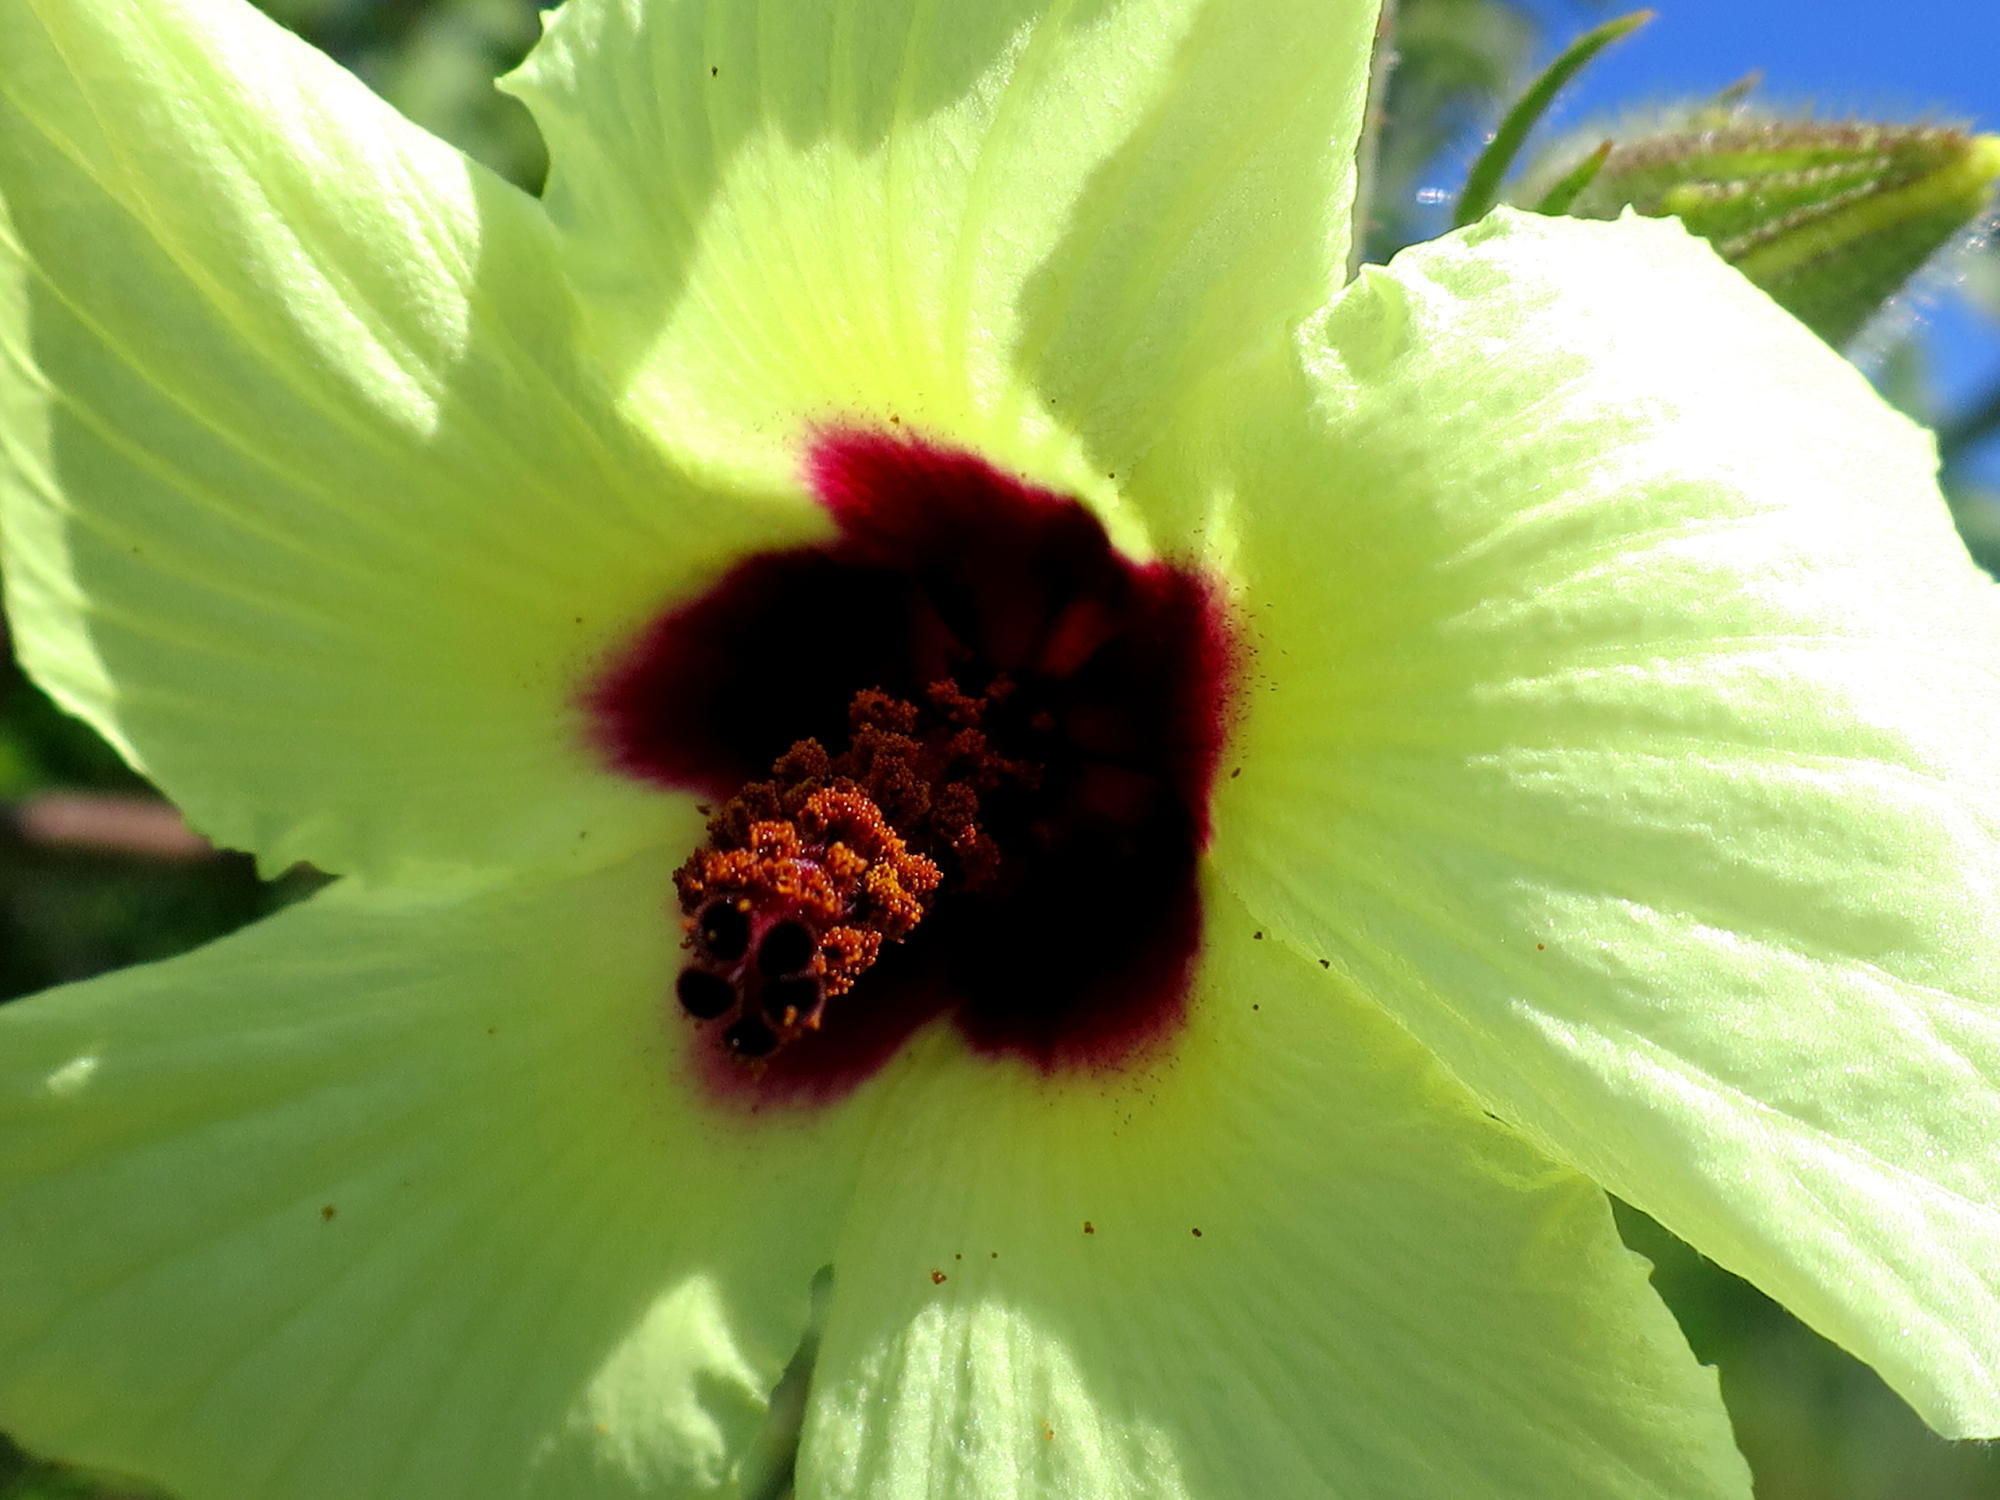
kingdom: Plantae
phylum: Tracheophyta
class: Magnoliopsida
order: Malvales
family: Malvaceae
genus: Hibiscus
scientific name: Hibiscus diversifolius
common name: Cape hibiscus
